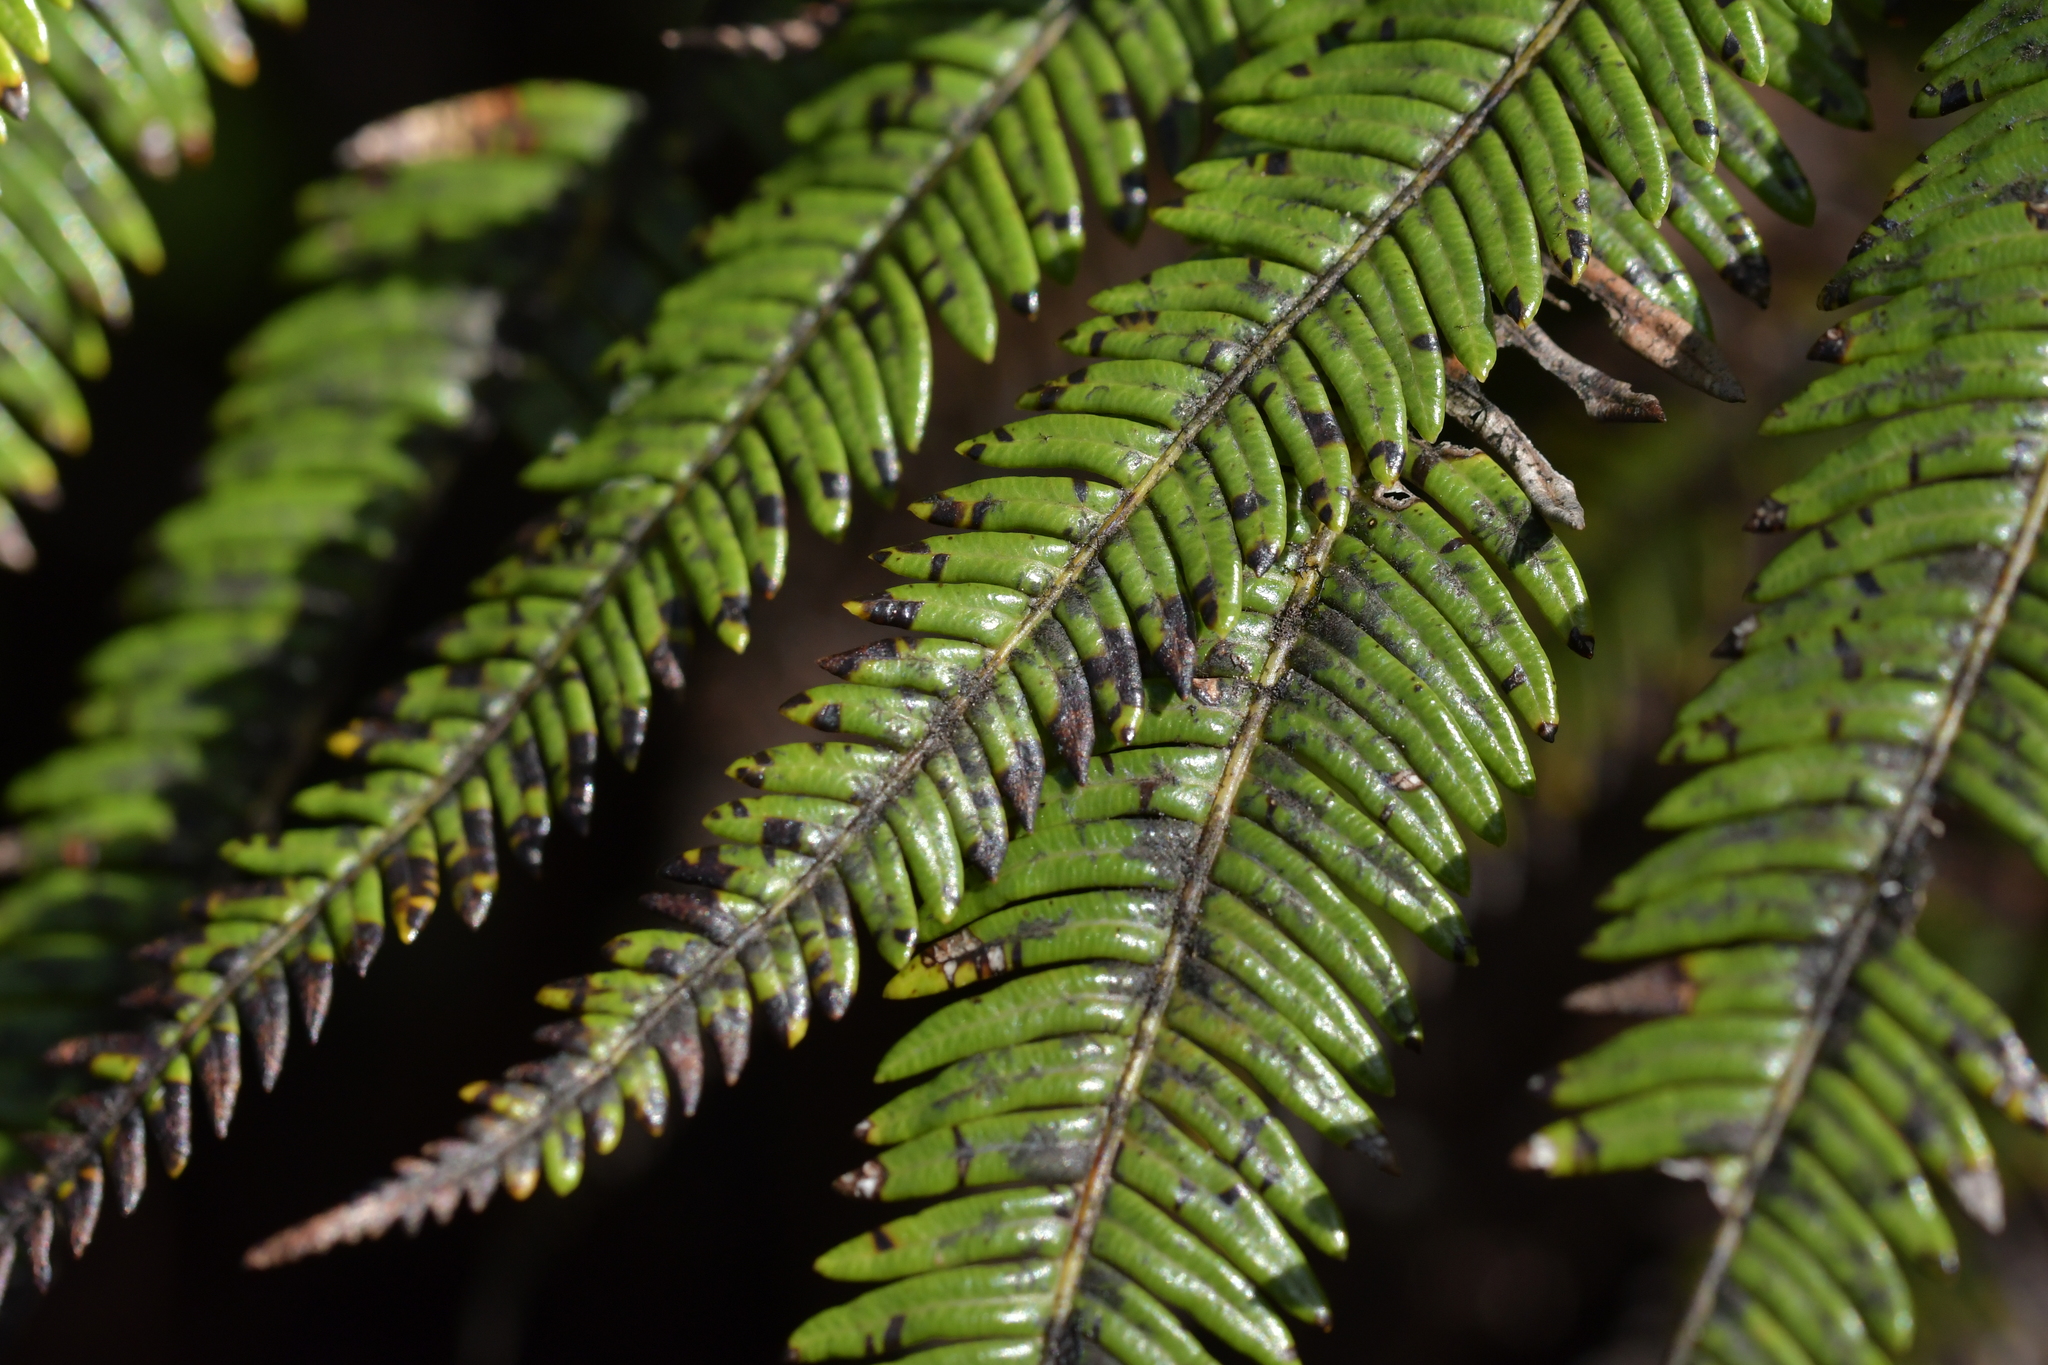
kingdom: Plantae
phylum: Tracheophyta
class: Polypodiopsida
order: Gleicheniales
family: Gleicheniaceae
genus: Sticherus
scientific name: Sticherus cunninghamii
